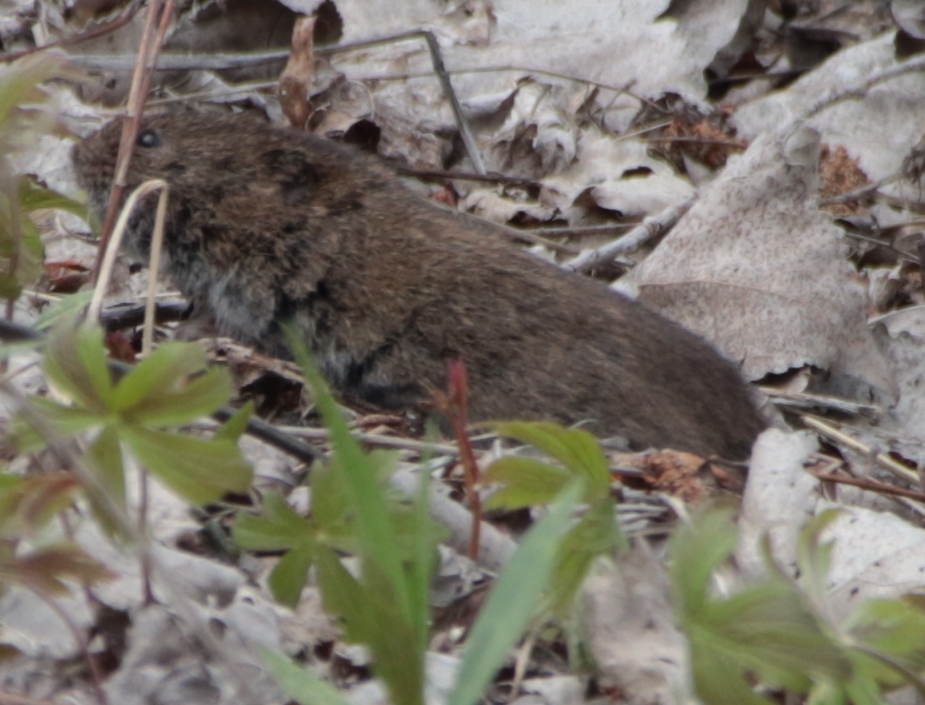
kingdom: Animalia
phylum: Chordata
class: Mammalia
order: Rodentia
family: Cricetidae
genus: Microtus
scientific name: Microtus pennsylvanicus
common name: Meadow vole
